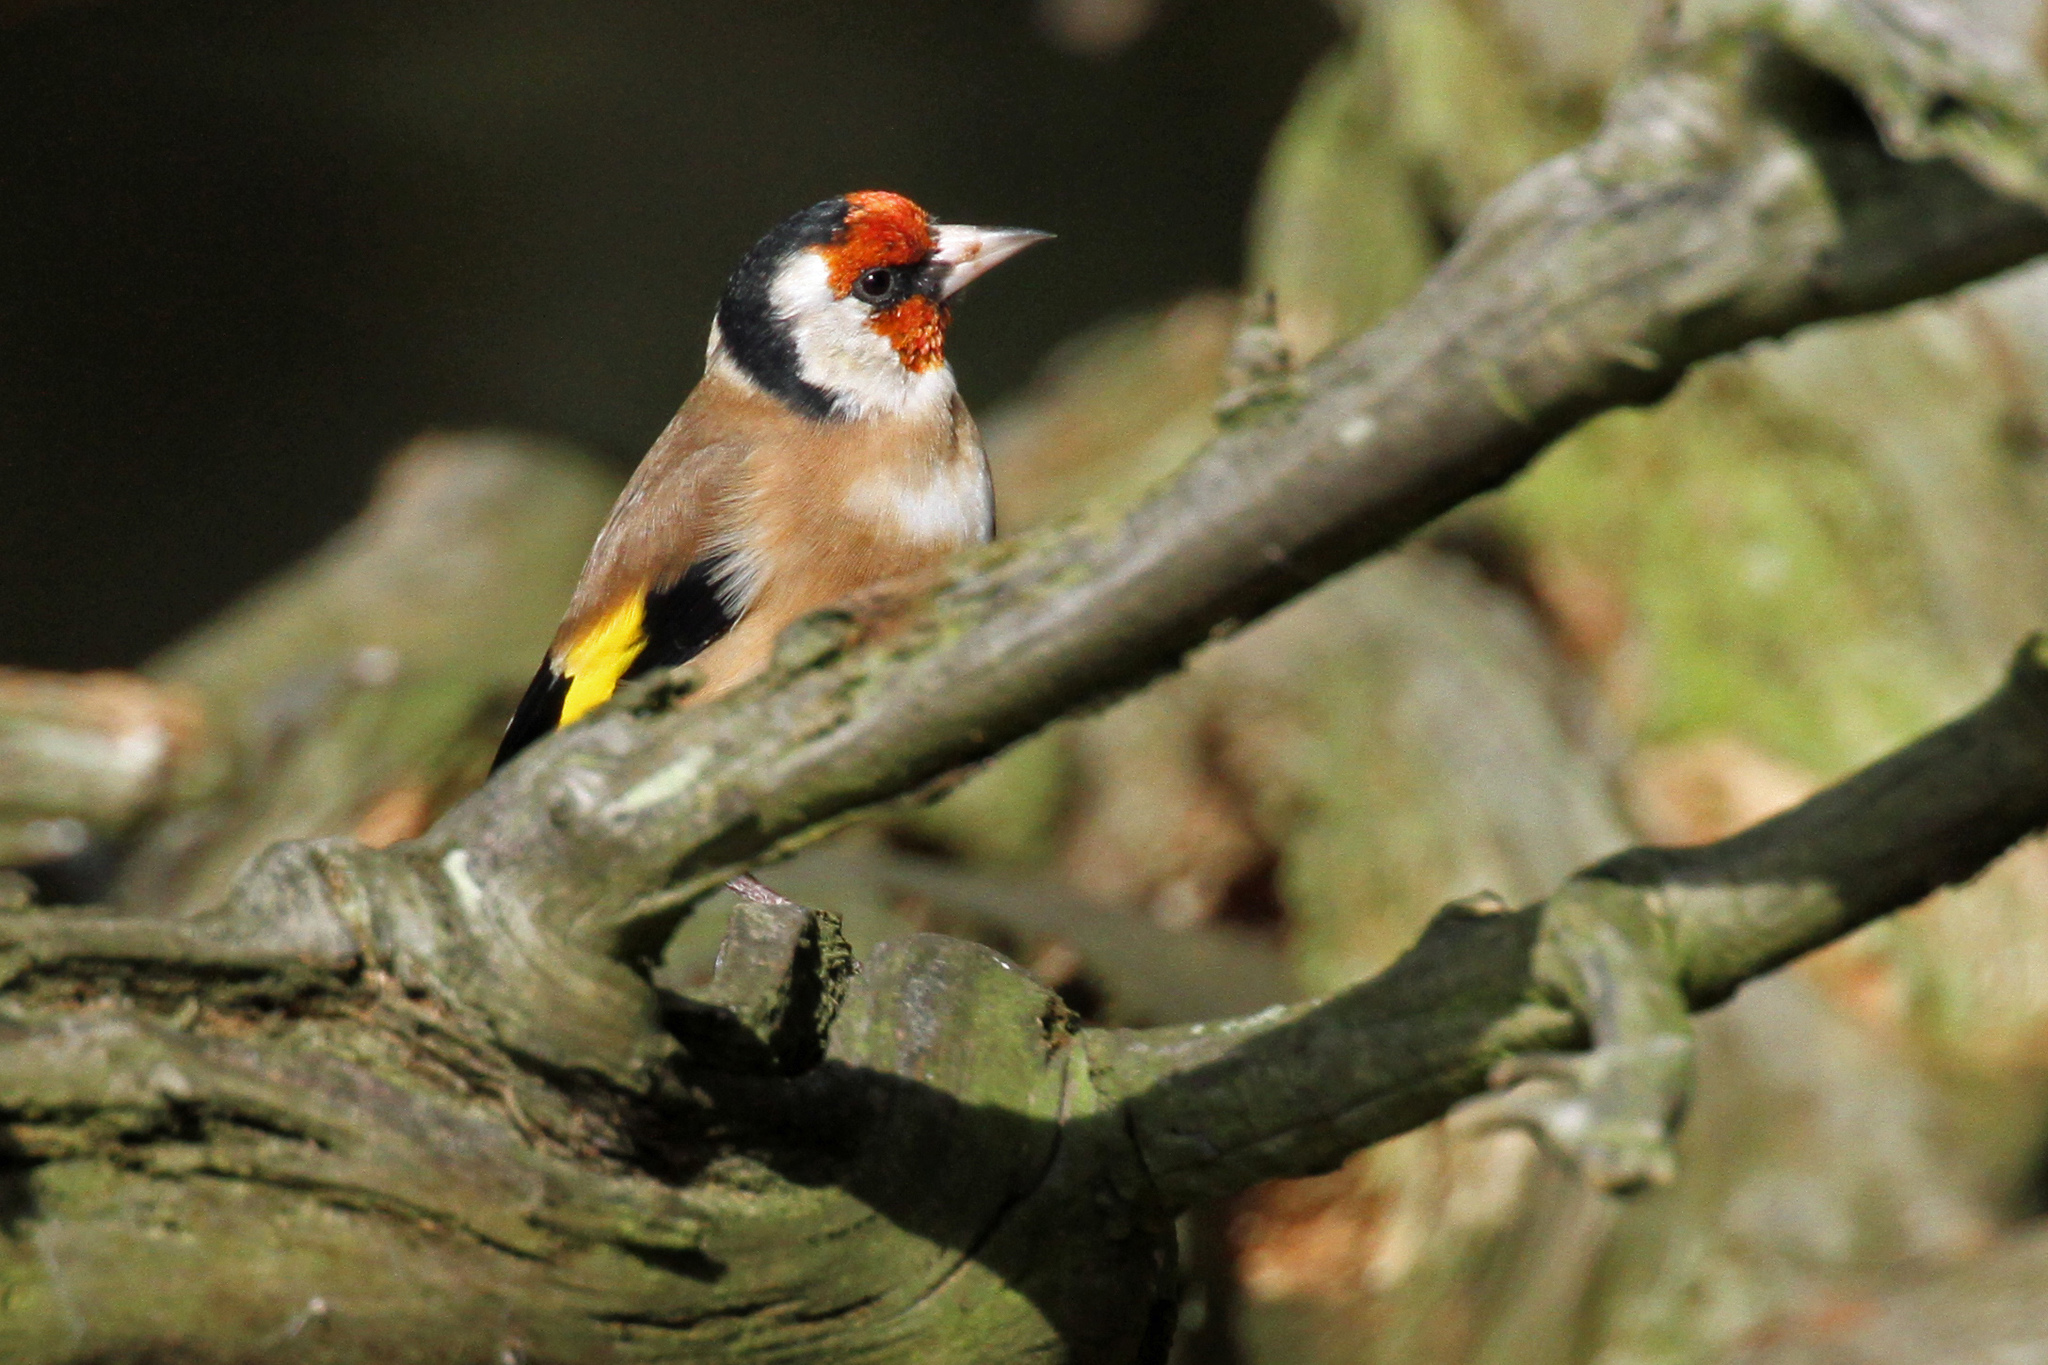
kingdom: Animalia
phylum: Chordata
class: Aves
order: Passeriformes
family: Fringillidae
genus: Carduelis
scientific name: Carduelis carduelis
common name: European goldfinch
